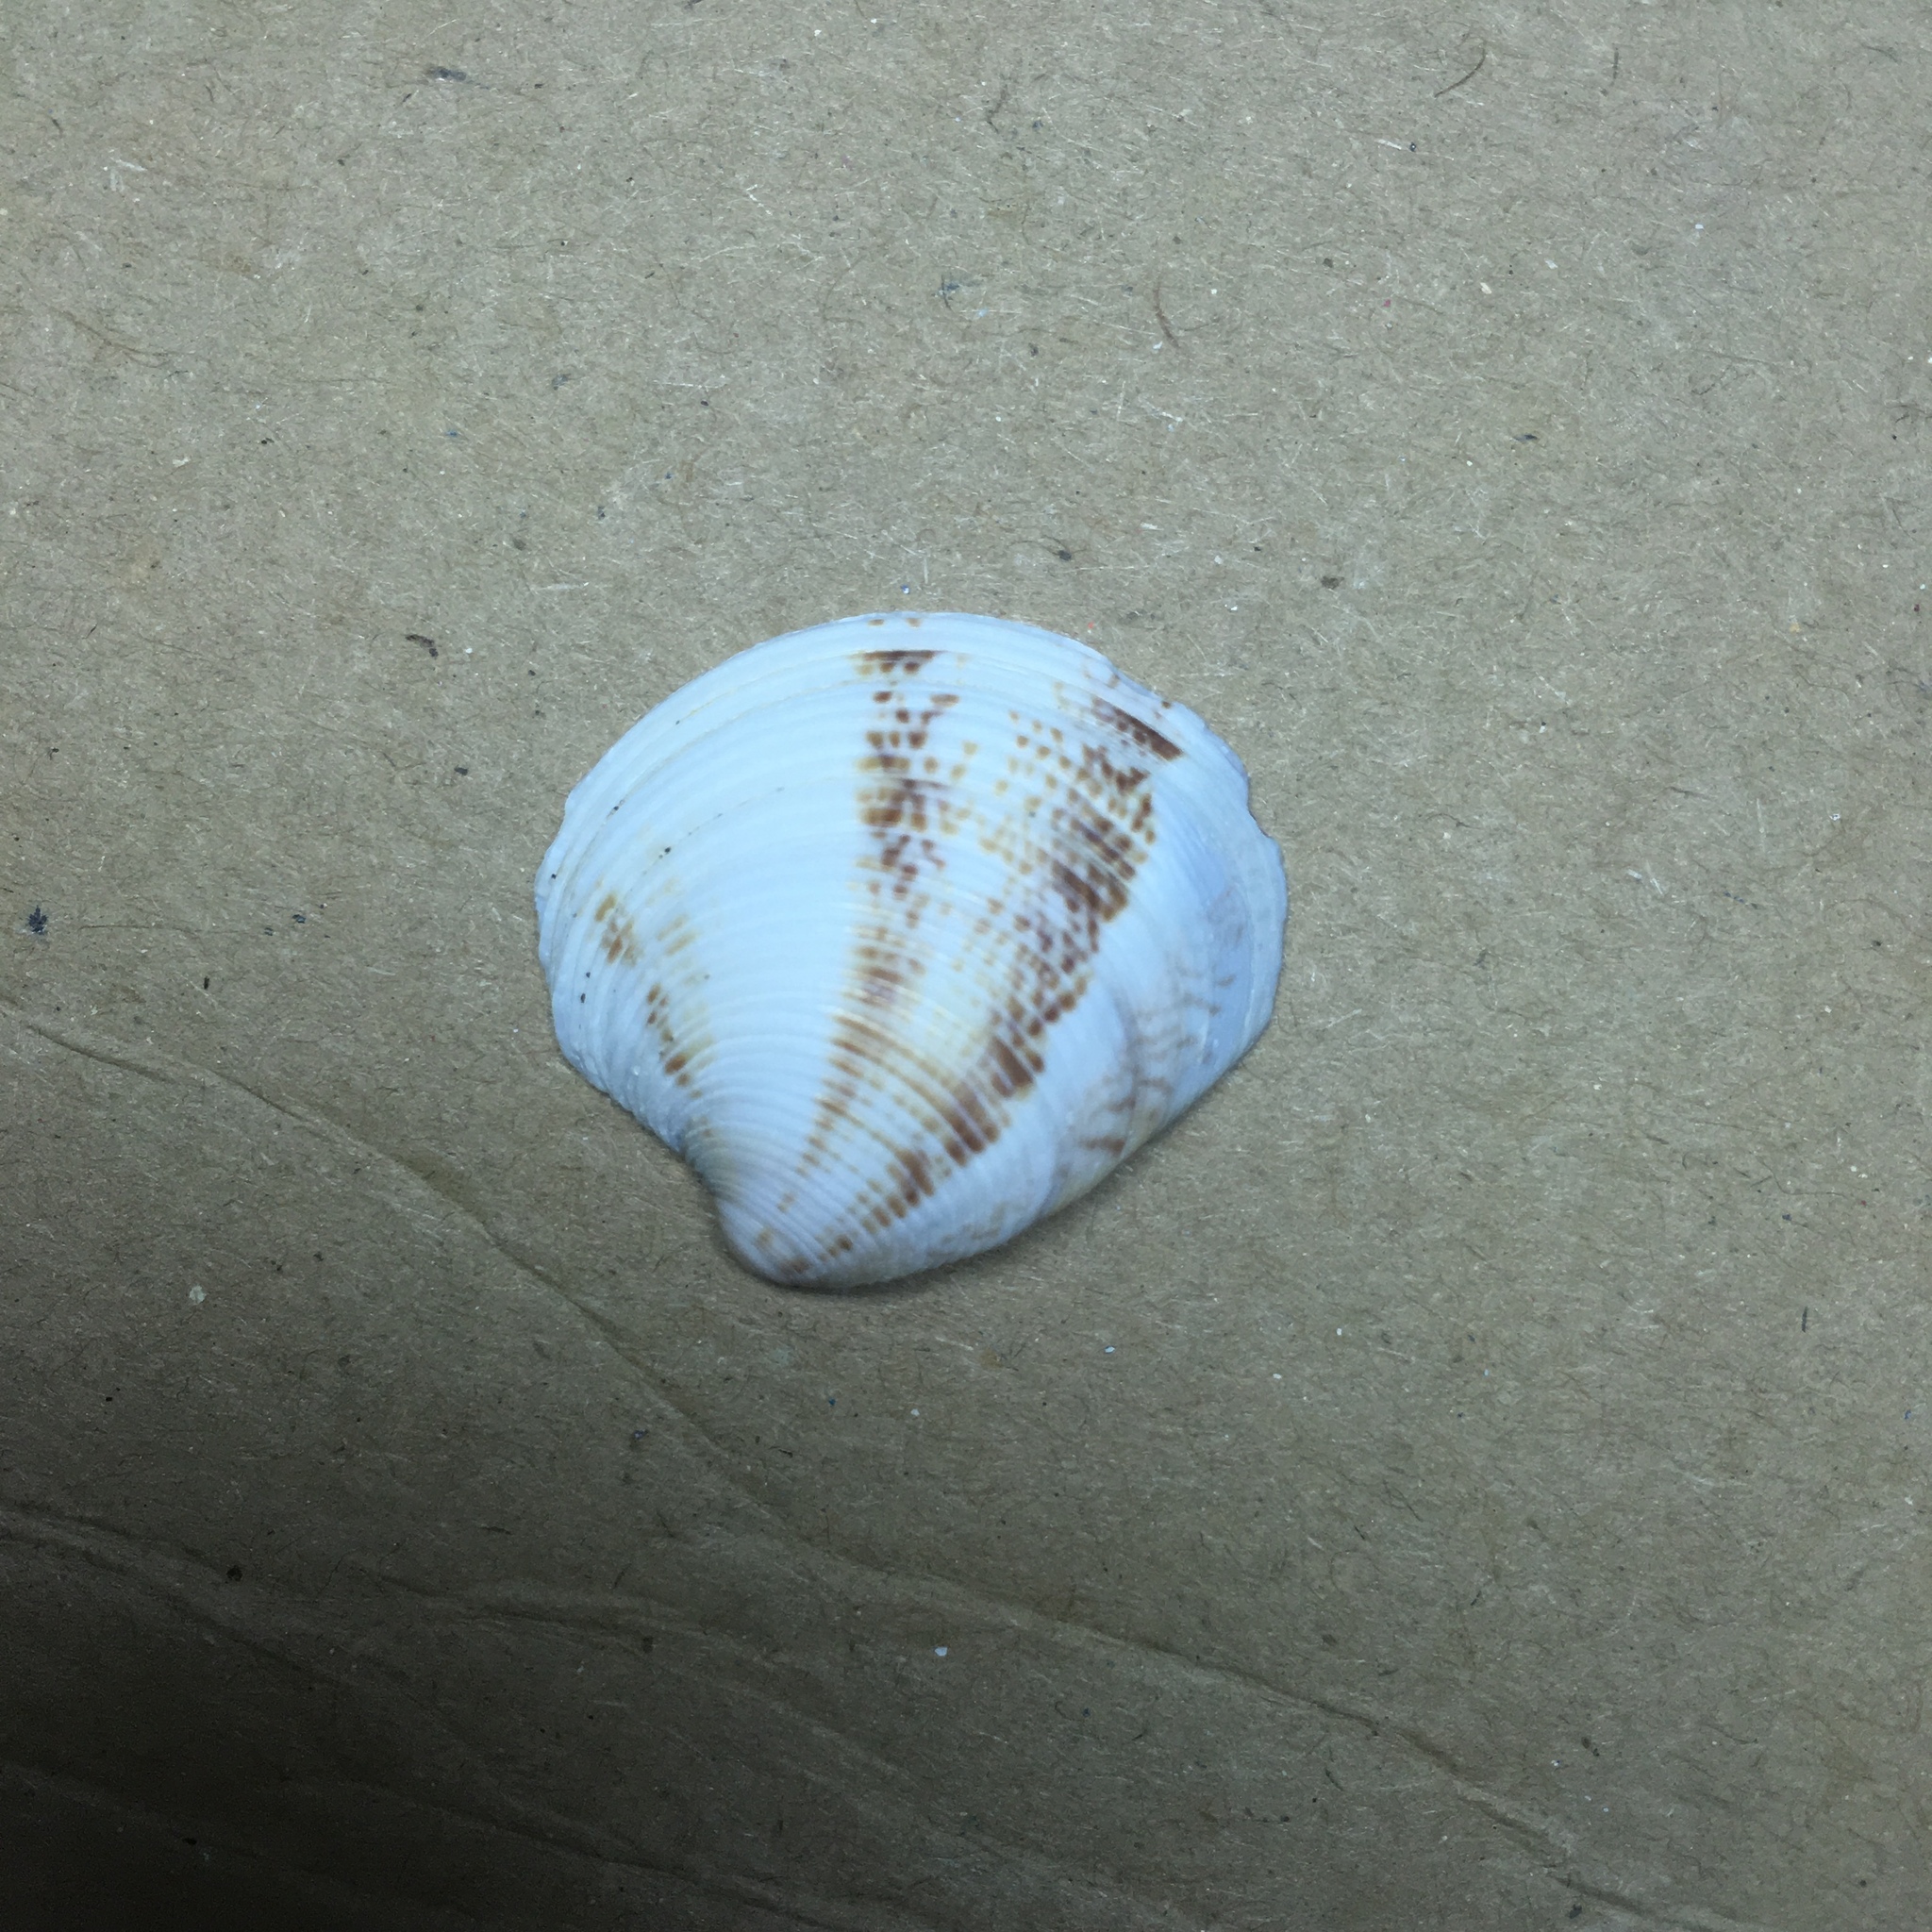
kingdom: Animalia
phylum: Mollusca
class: Bivalvia
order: Venerida
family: Veneridae
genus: Chamelea
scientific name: Chamelea gallina
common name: Chicken venus
